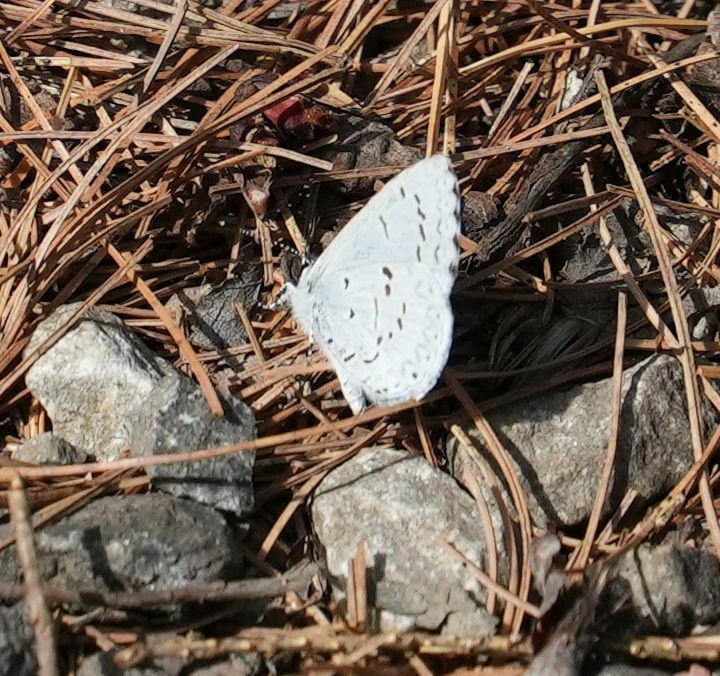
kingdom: Animalia
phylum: Arthropoda
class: Insecta
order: Lepidoptera
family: Lycaenidae
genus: Celastrina
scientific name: Celastrina lucia
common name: Lucia azure
